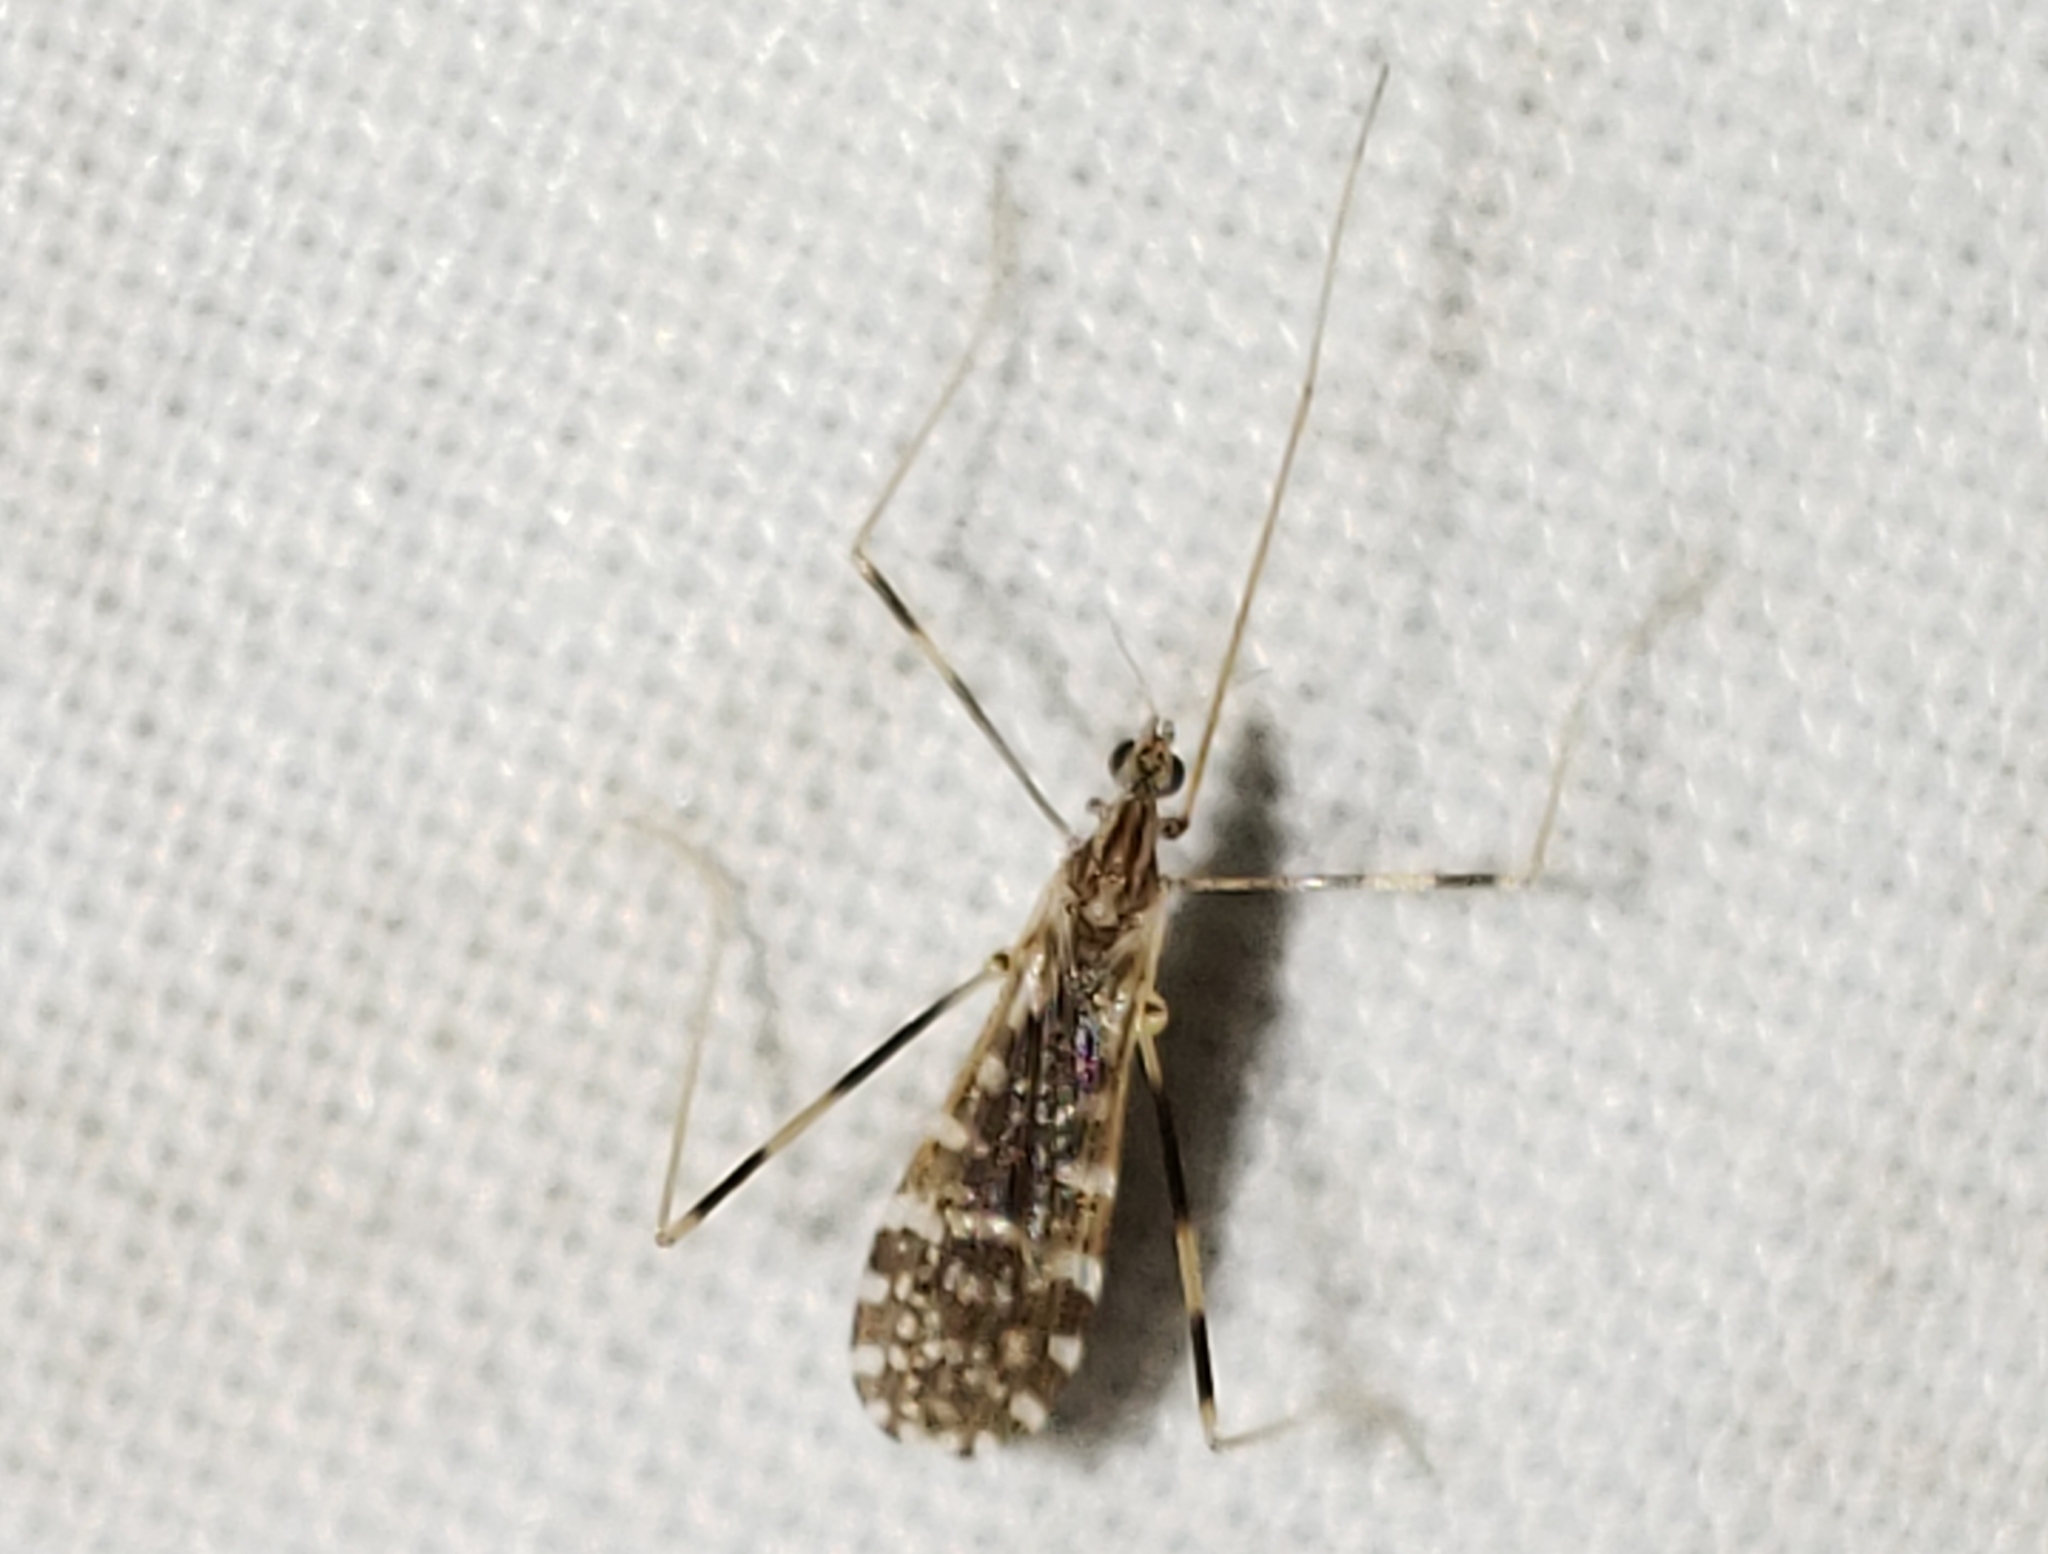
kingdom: Animalia
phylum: Arthropoda
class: Insecta
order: Diptera
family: Limoniidae
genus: Erioptera
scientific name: Erioptera caliptera
